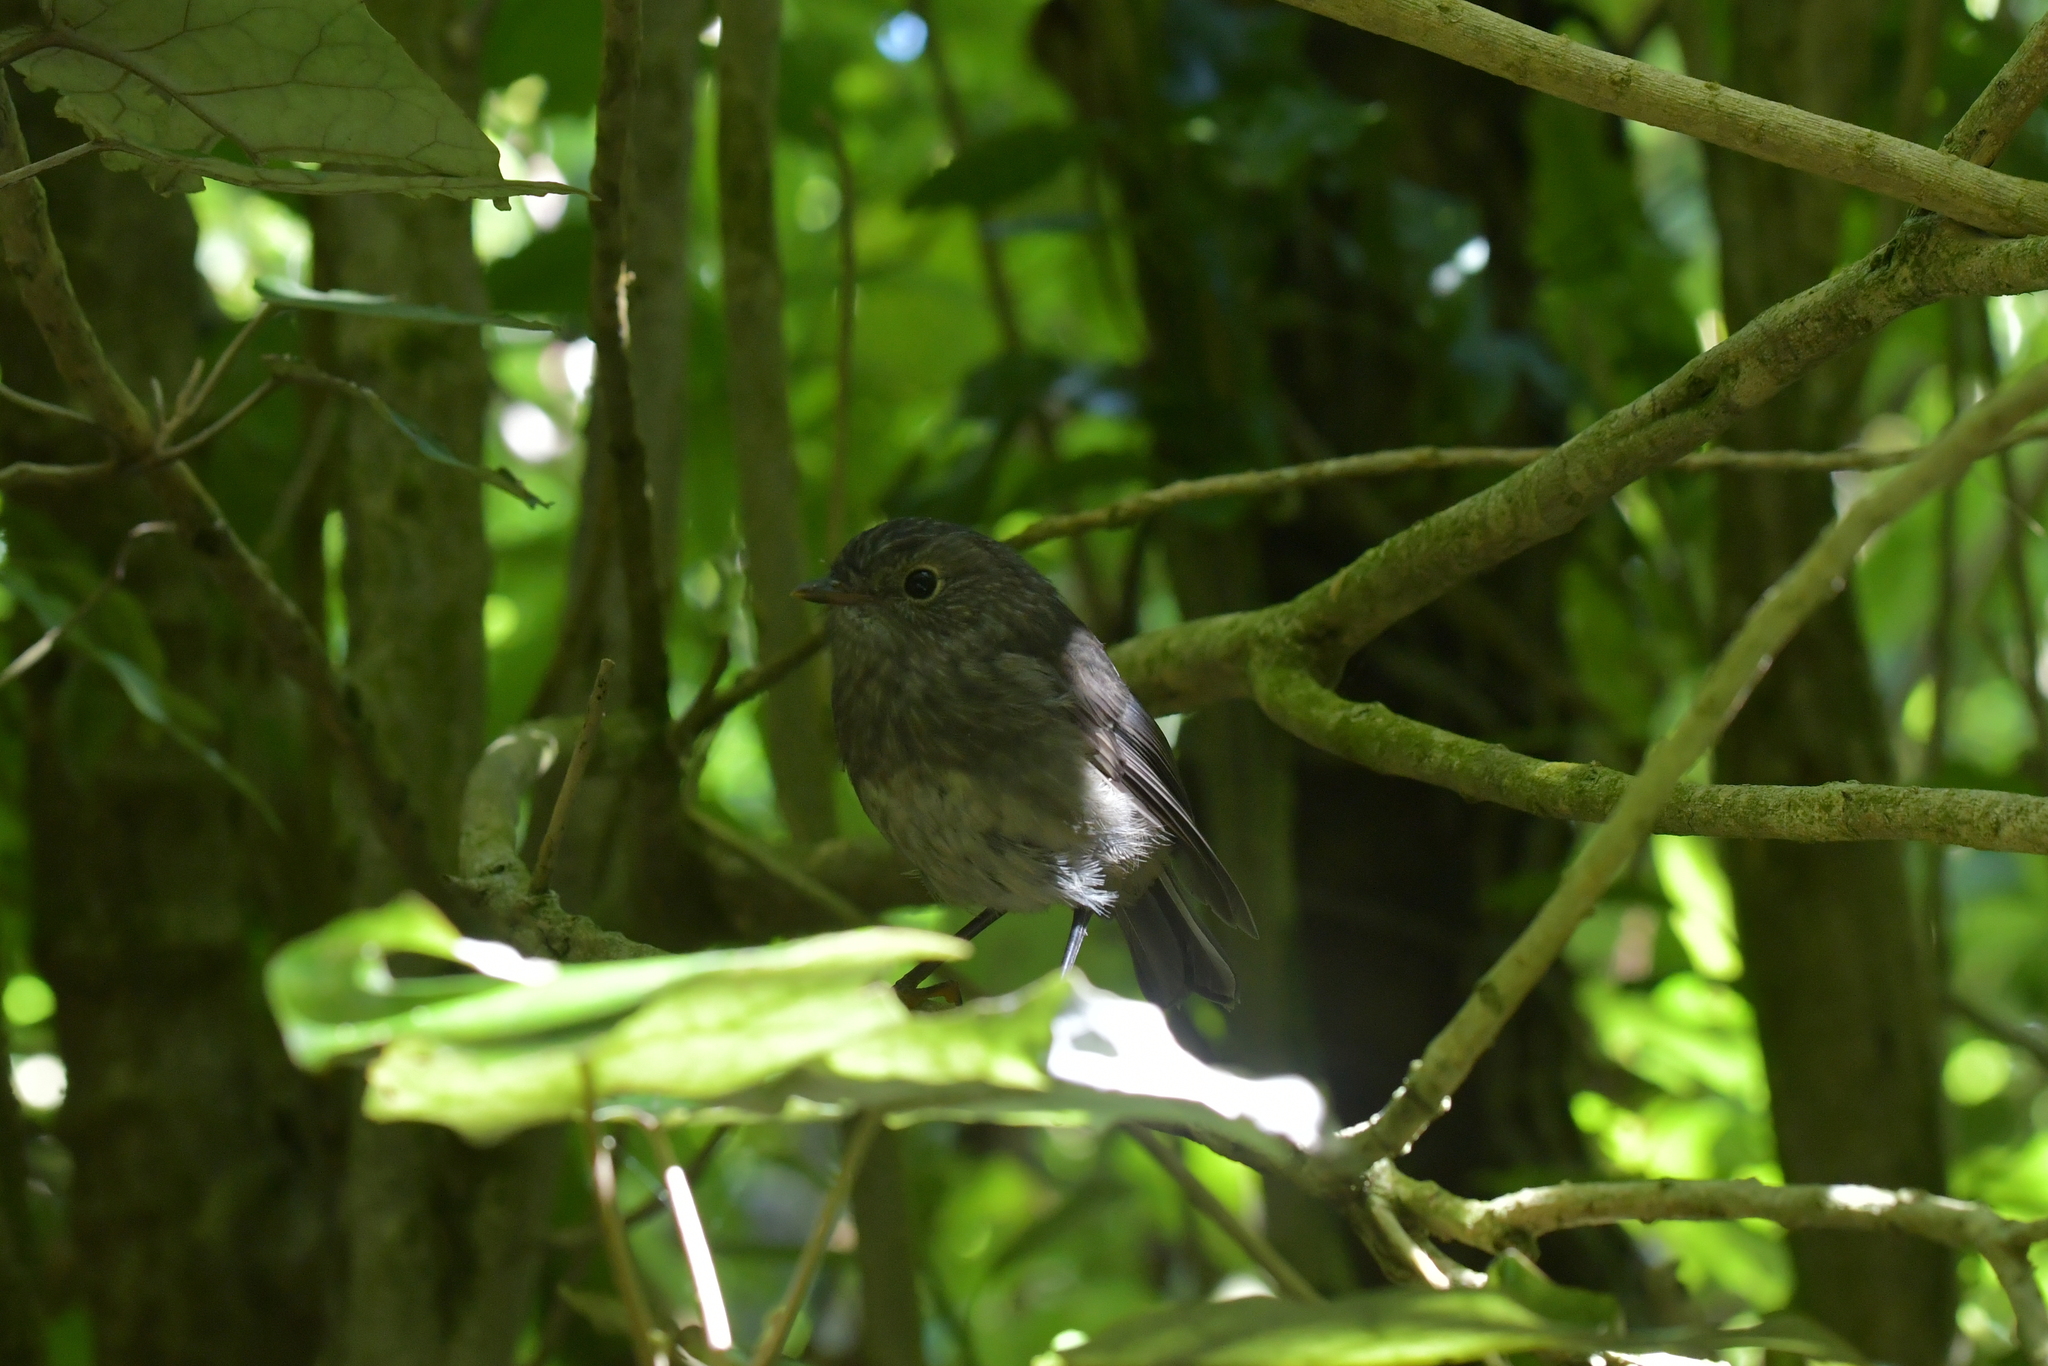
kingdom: Animalia
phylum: Chordata
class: Aves
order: Passeriformes
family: Petroicidae
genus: Petroica
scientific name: Petroica australis
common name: New zealand robin
